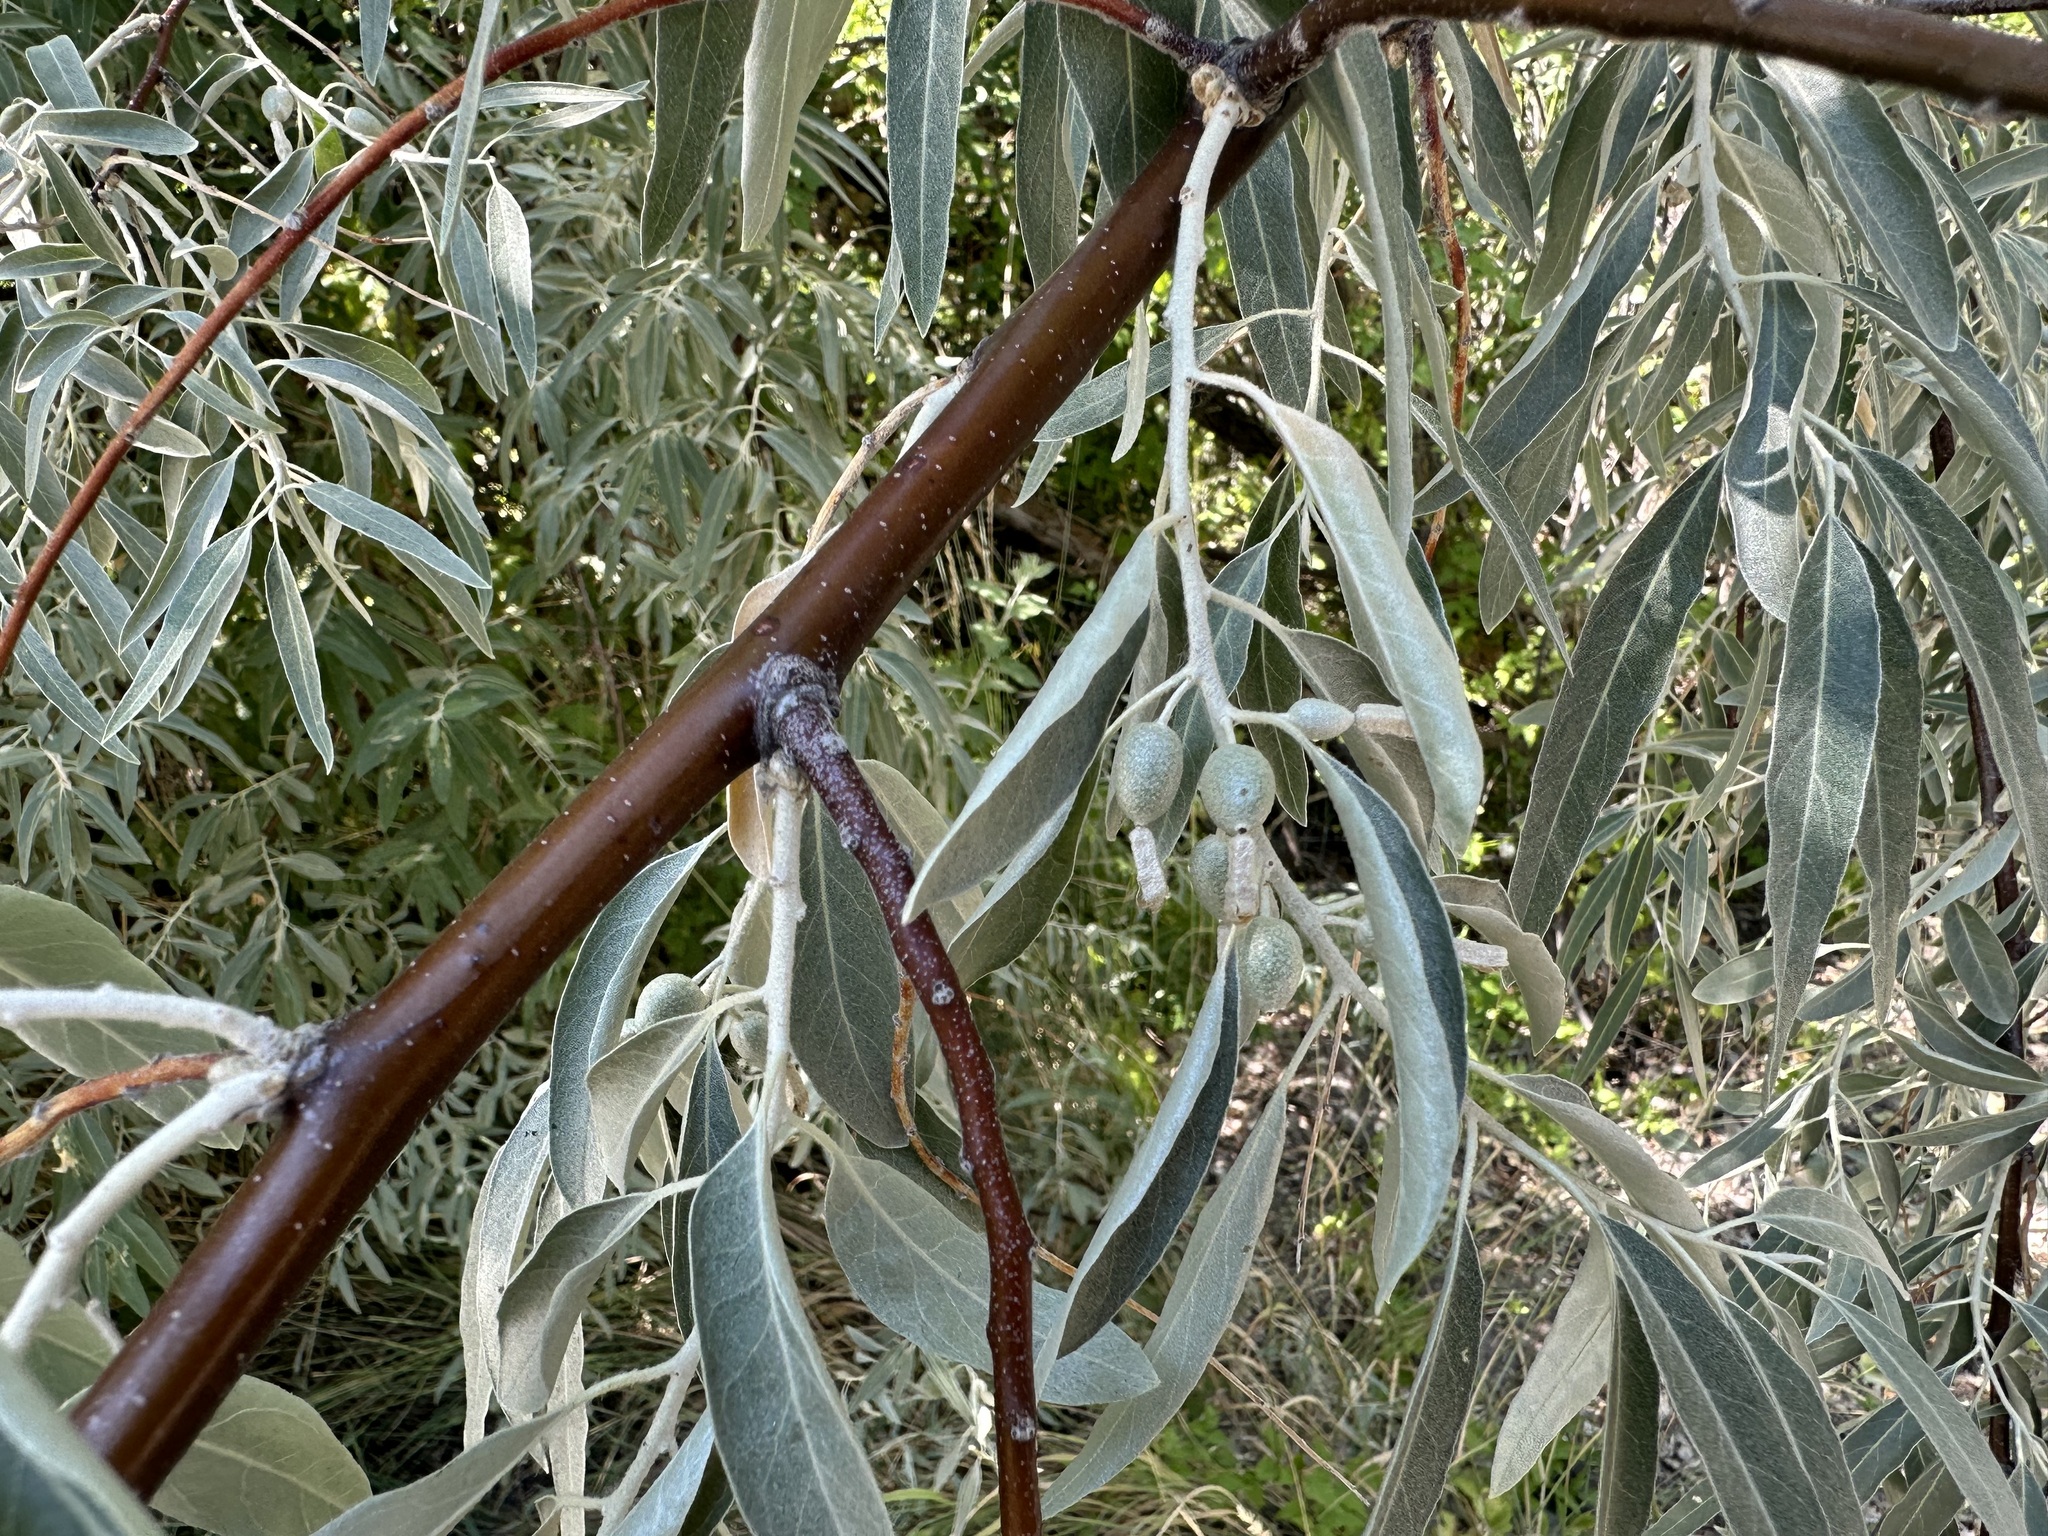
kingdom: Plantae
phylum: Tracheophyta
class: Magnoliopsida
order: Rosales
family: Elaeagnaceae
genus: Elaeagnus
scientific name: Elaeagnus angustifolia
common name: Russian olive
